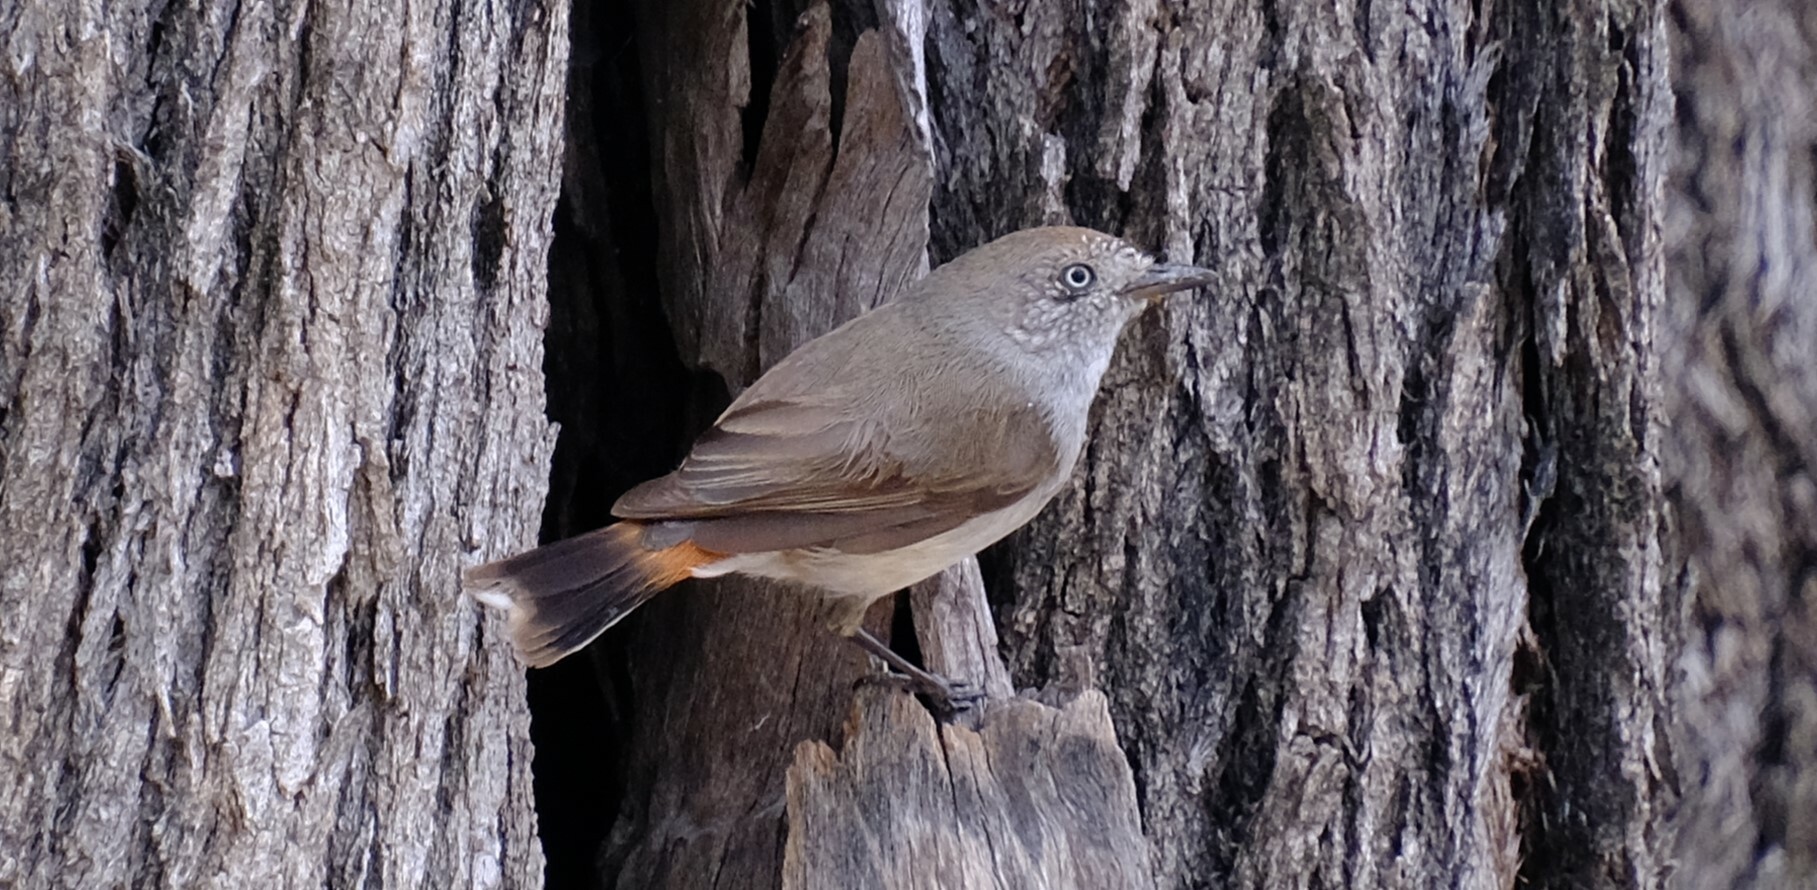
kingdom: Animalia
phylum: Chordata
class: Aves
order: Passeriformes
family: Acanthizidae
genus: Acanthiza
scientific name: Acanthiza uropygialis
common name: Chestnut-rumped thornbill
